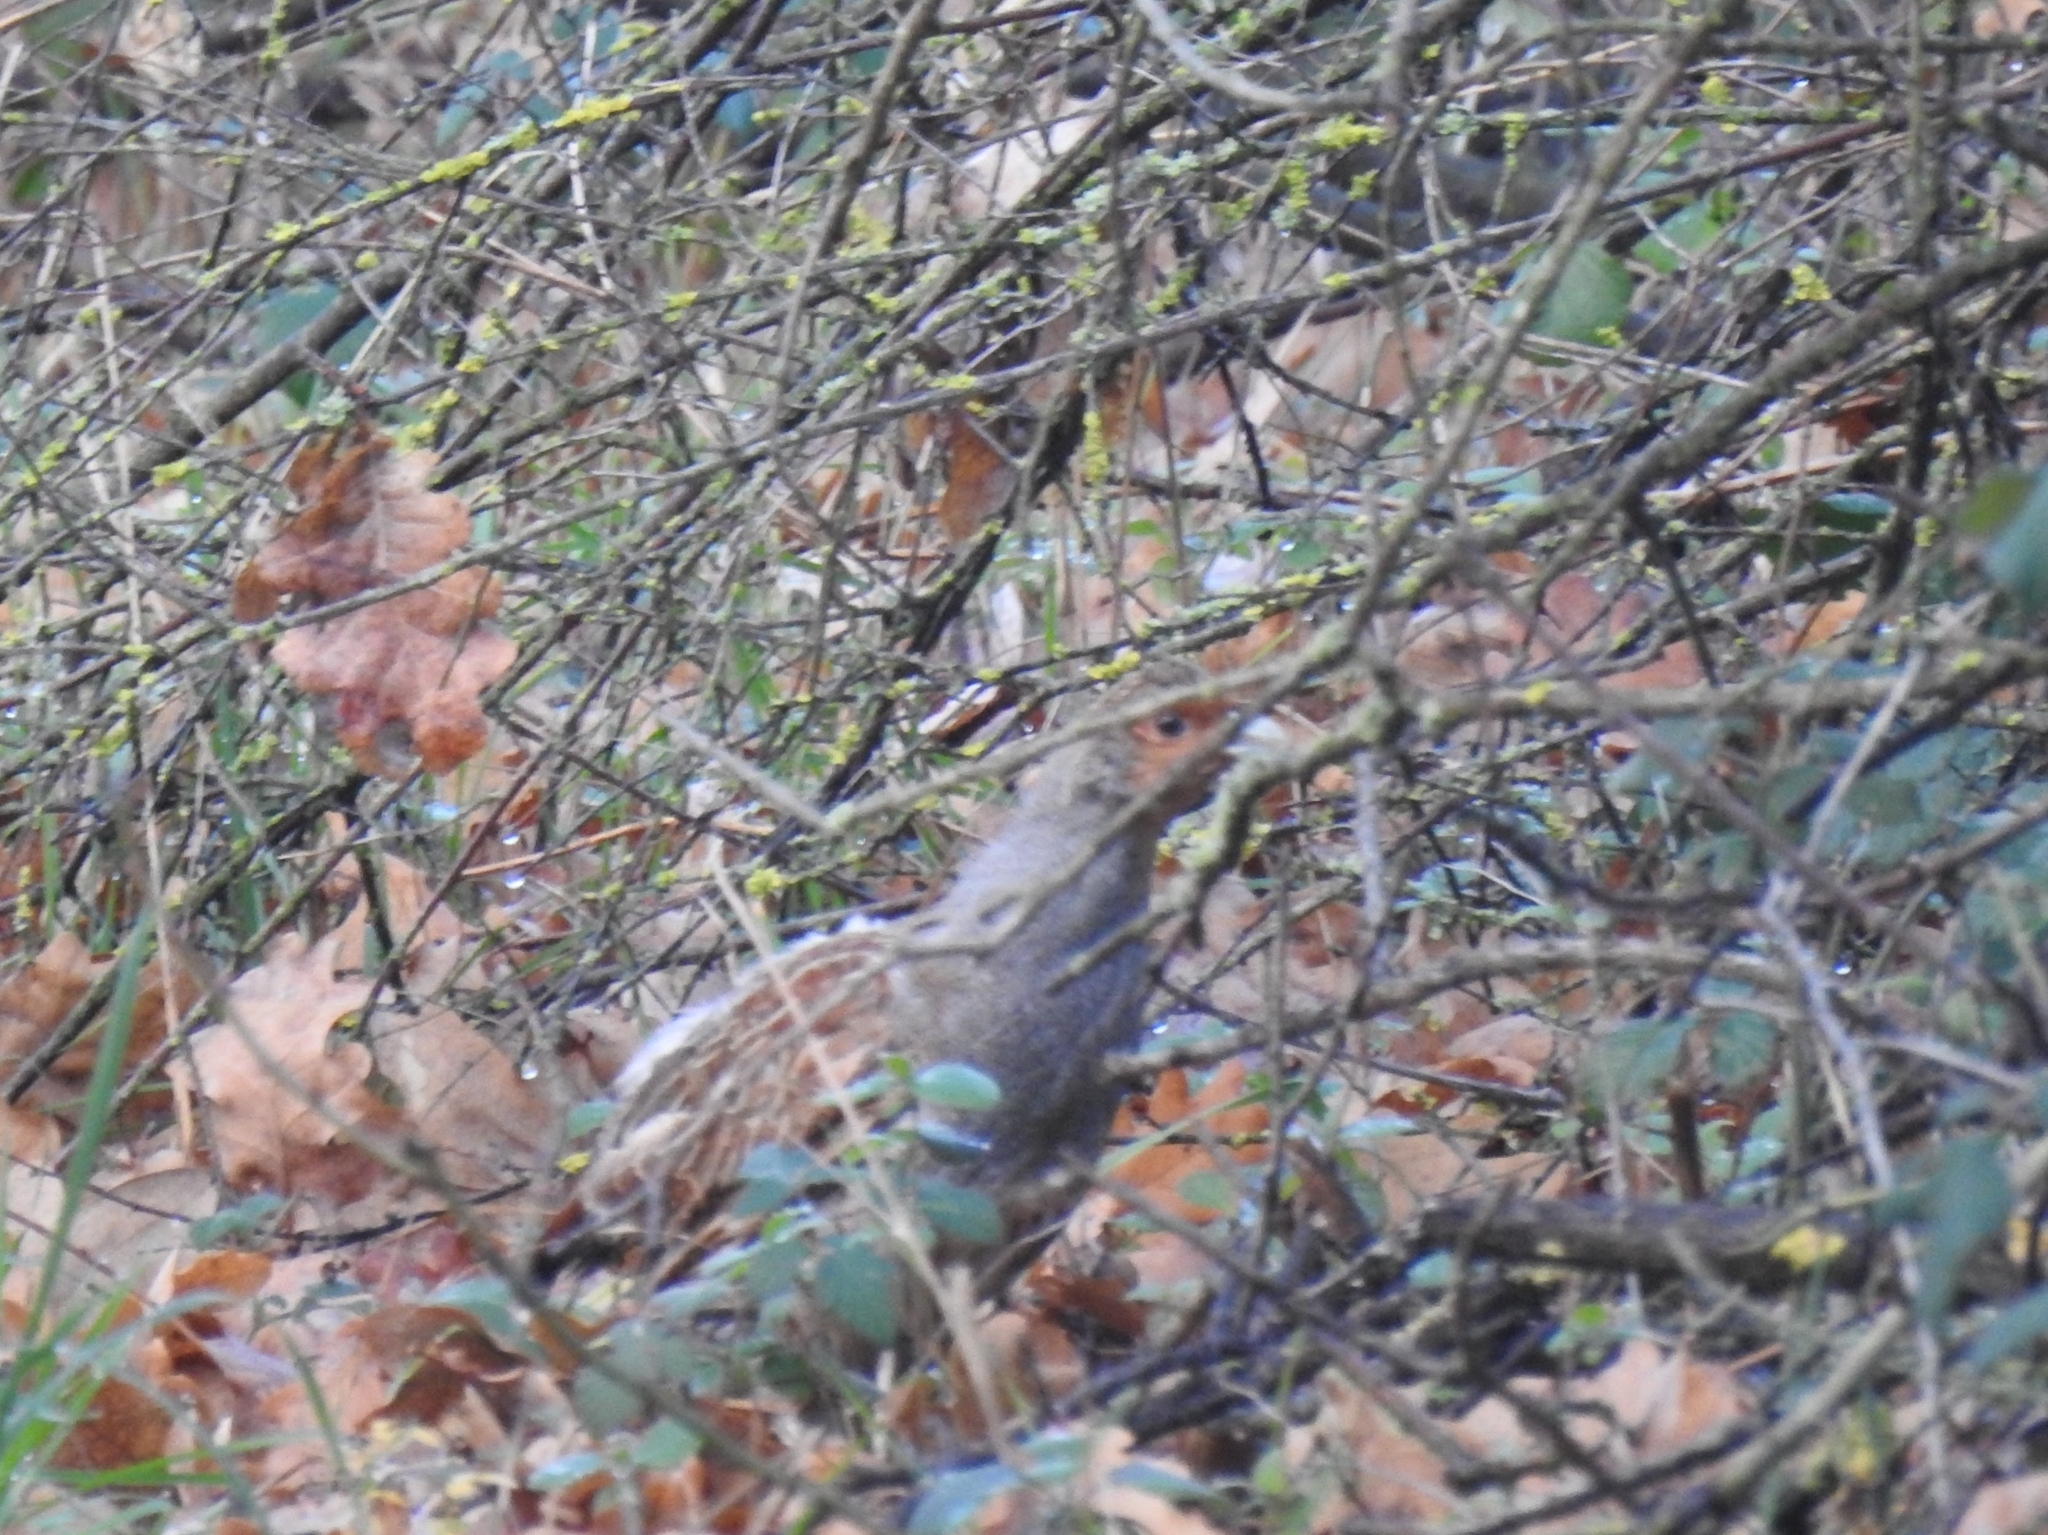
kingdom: Animalia
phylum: Chordata
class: Aves
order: Galliformes
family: Phasianidae
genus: Perdix
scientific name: Perdix perdix
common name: Grey partridge
